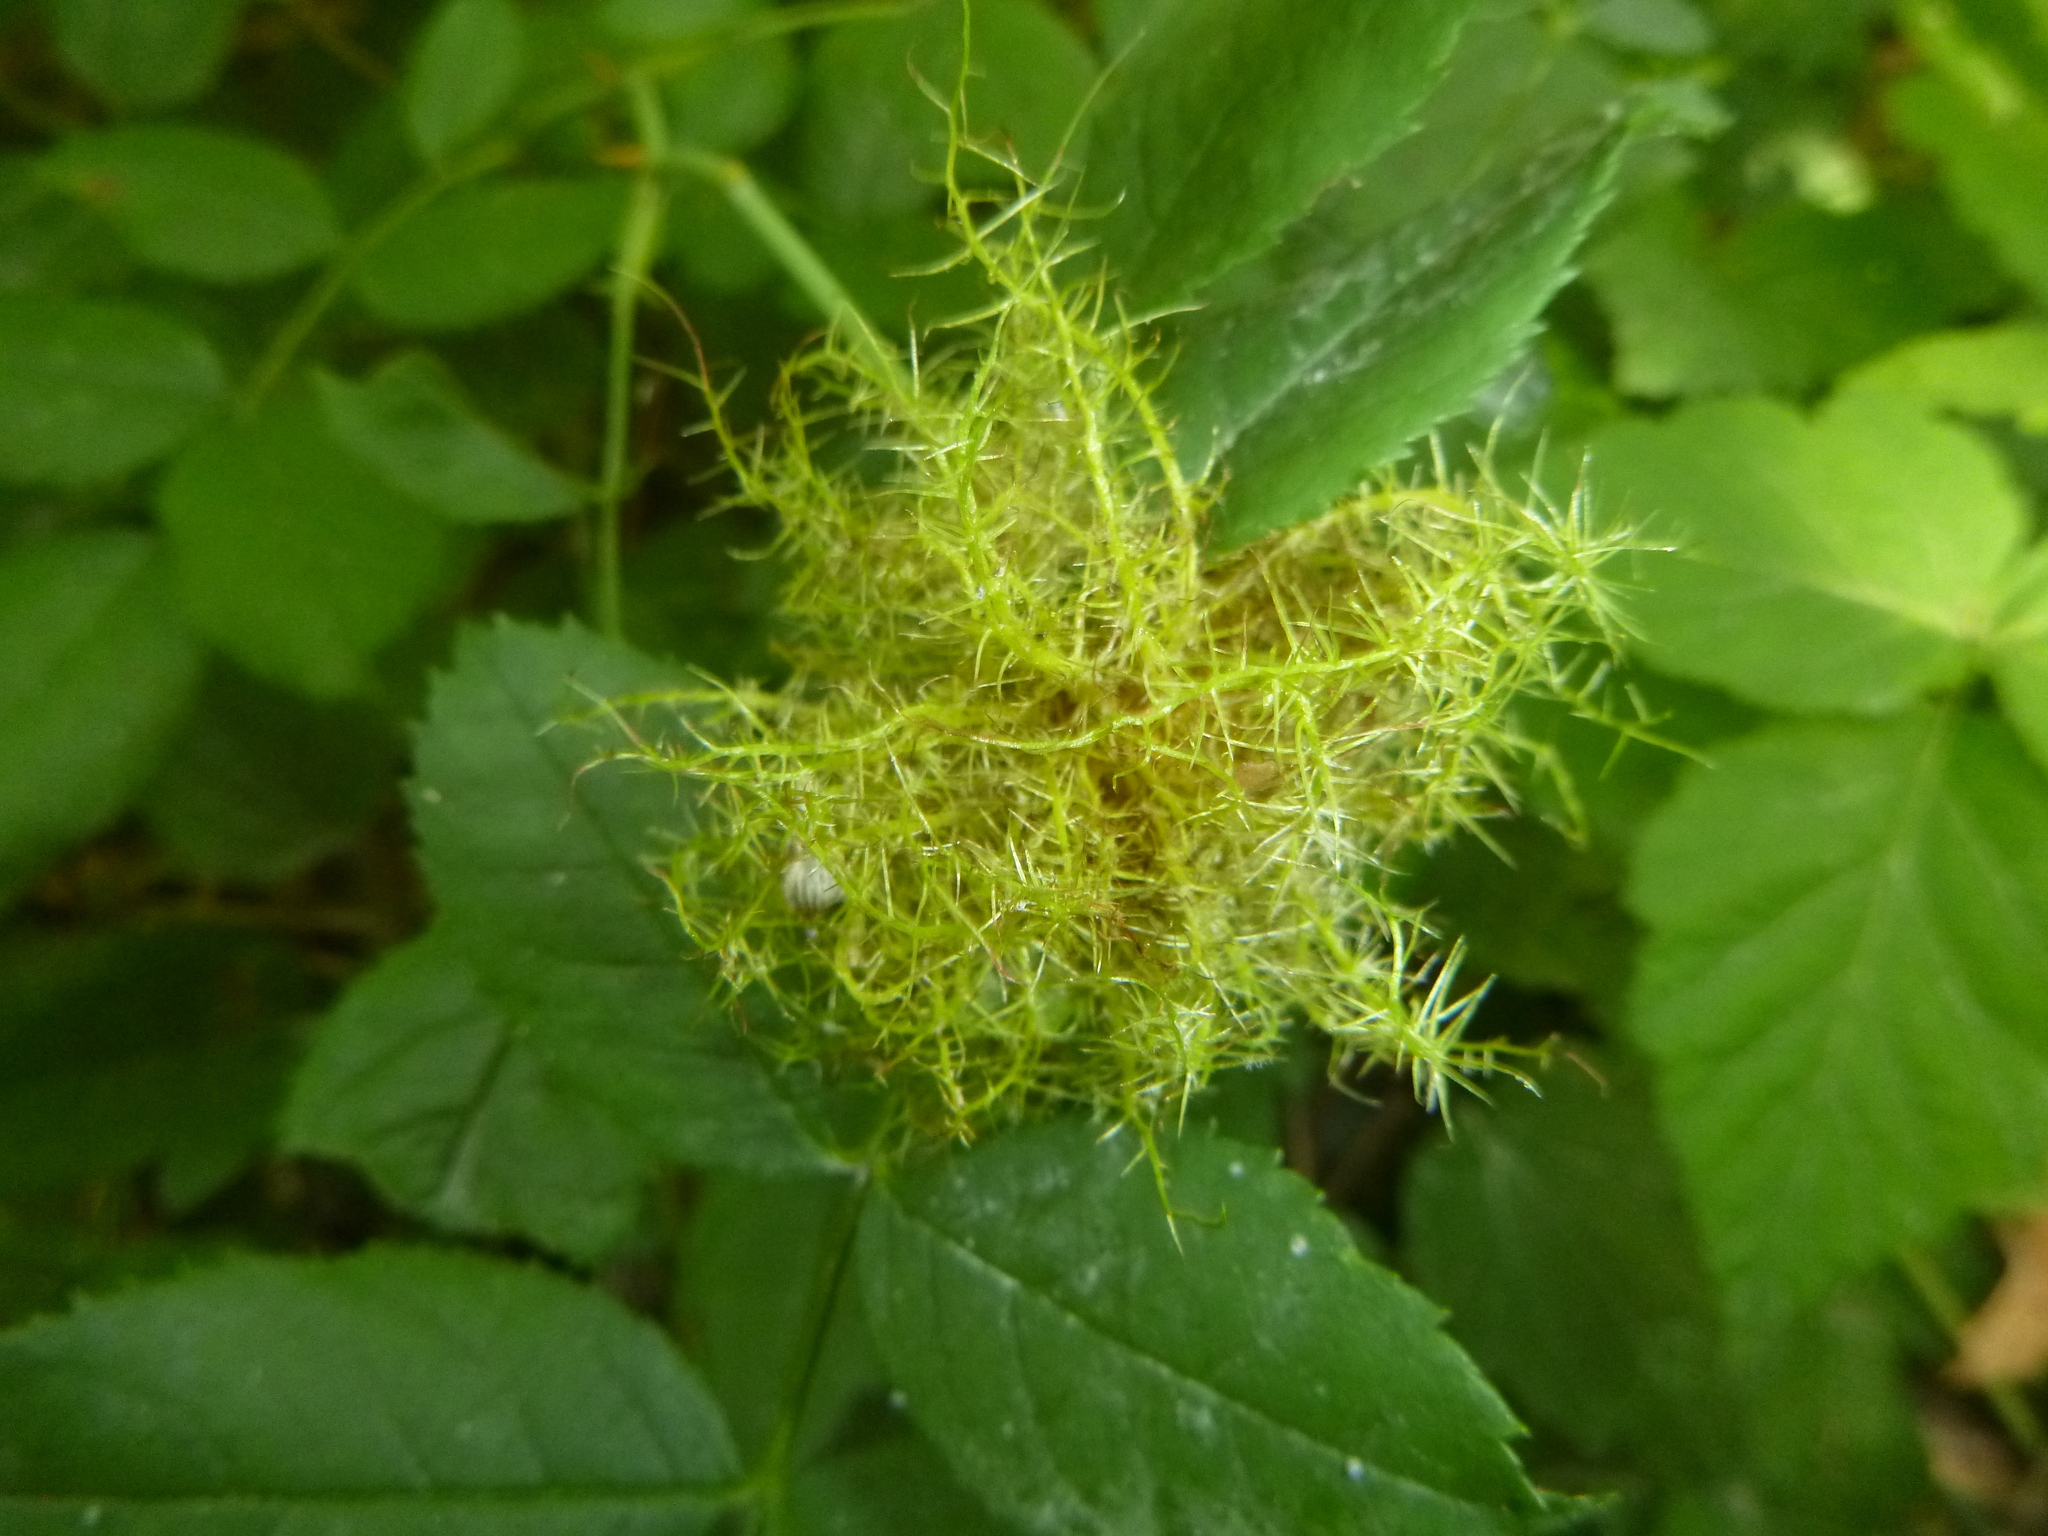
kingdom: Animalia
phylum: Arthropoda
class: Insecta
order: Hymenoptera
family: Cynipidae
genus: Diplolepis
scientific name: Diplolepis rosae
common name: Bedeguar gall
